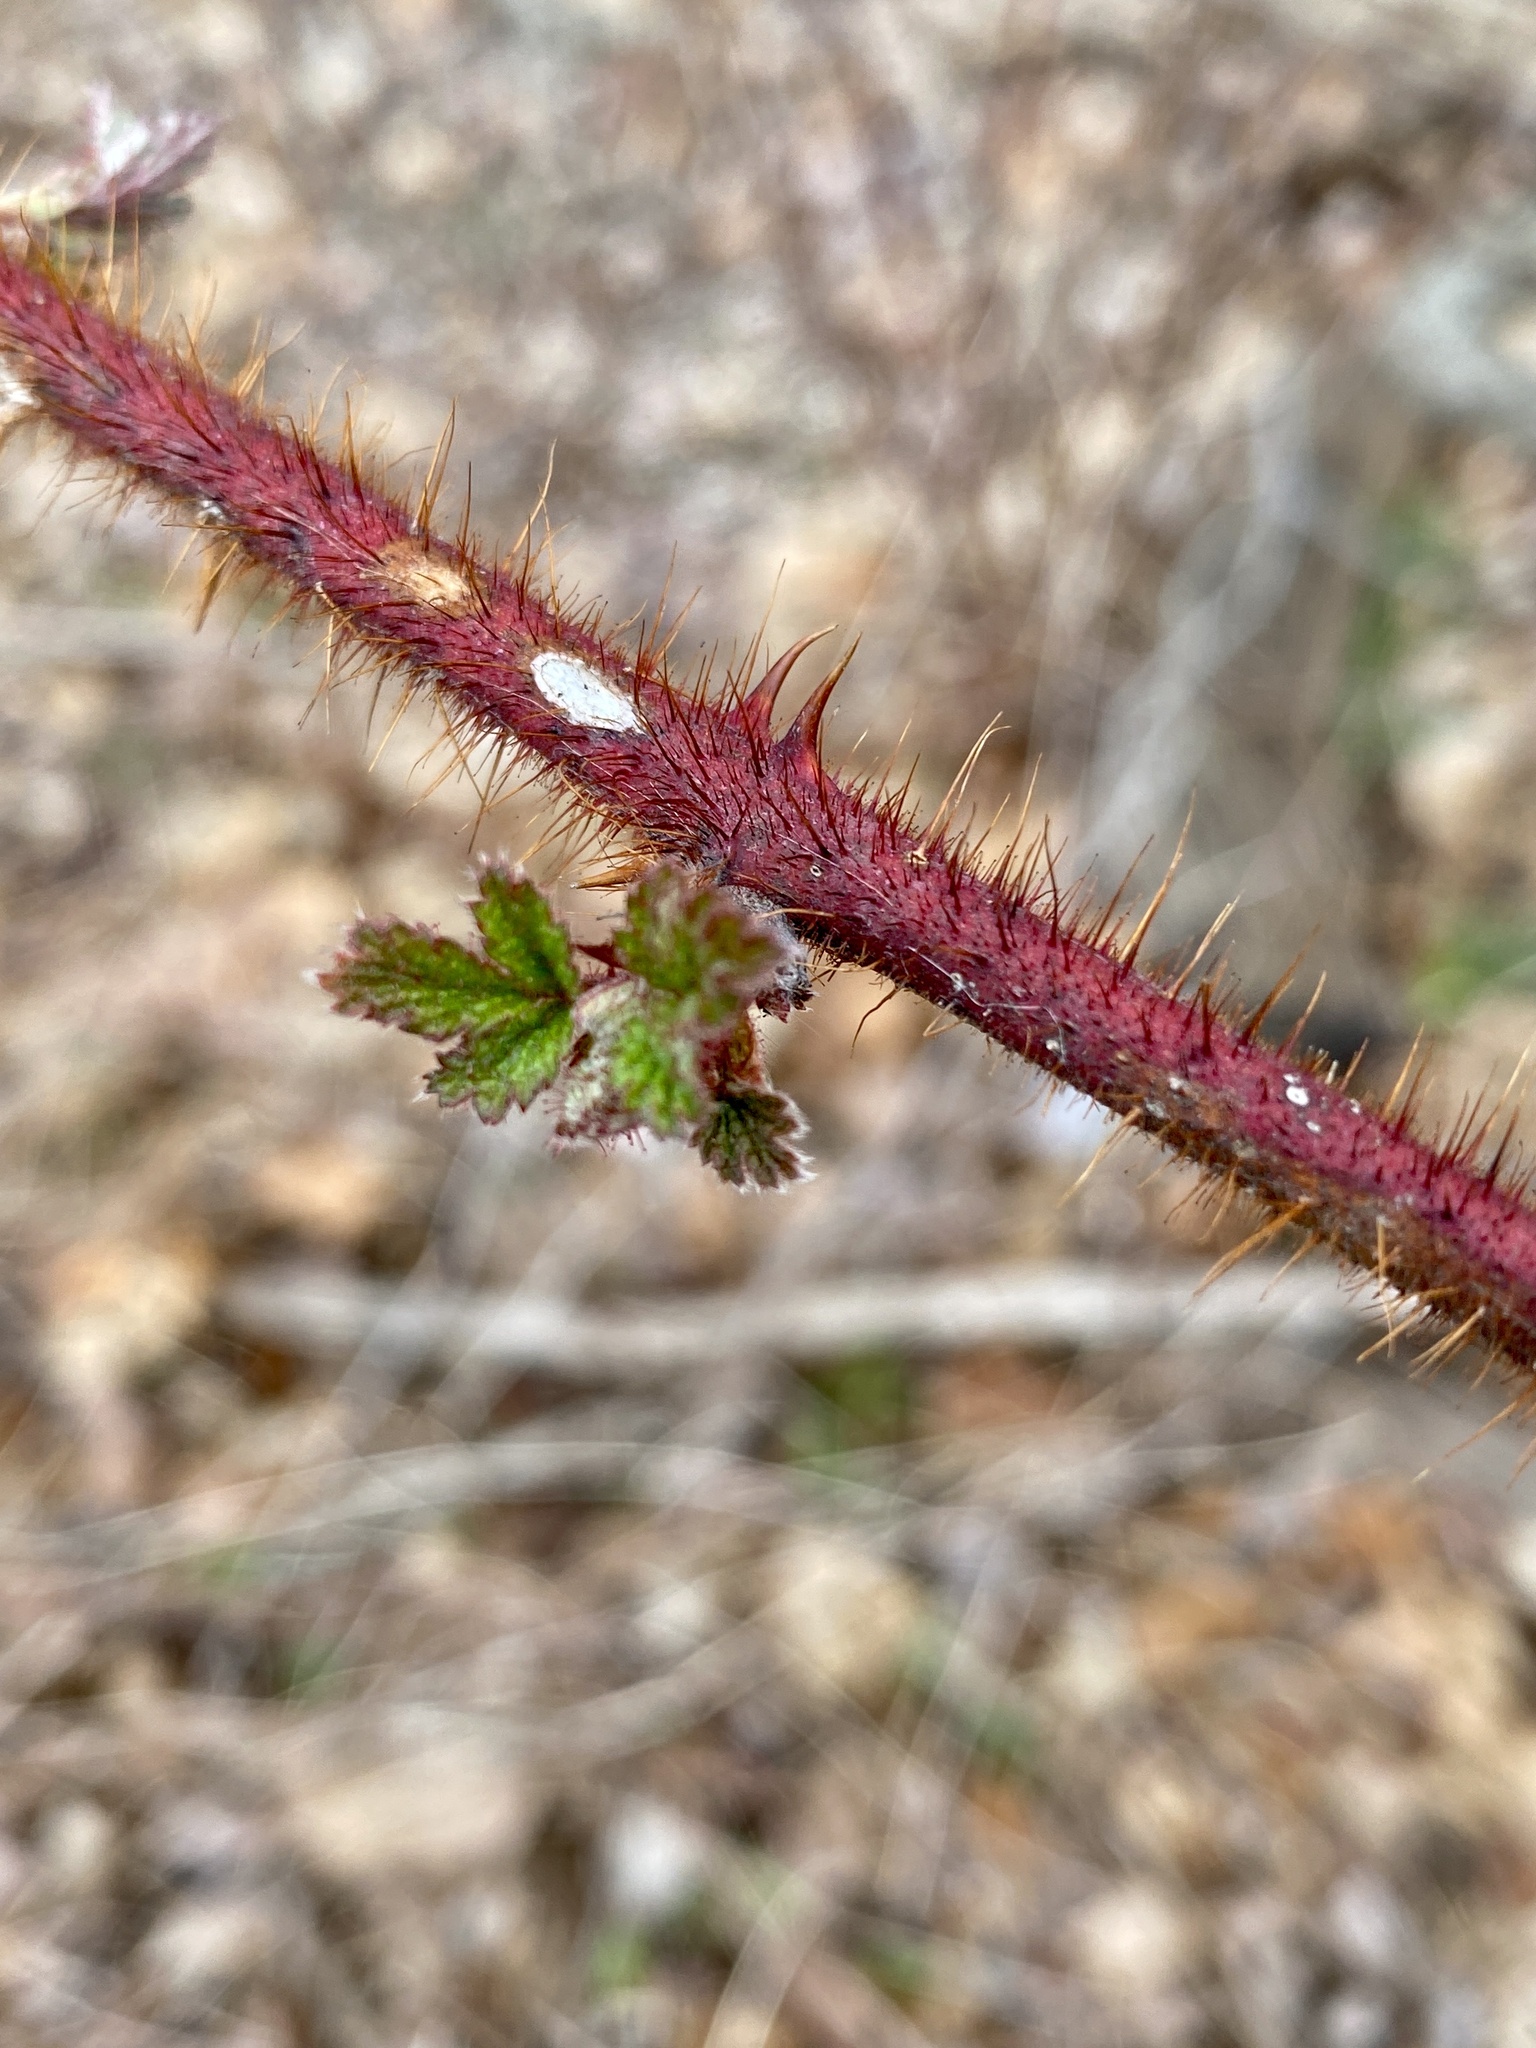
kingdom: Plantae
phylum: Tracheophyta
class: Magnoliopsida
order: Rosales
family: Rosaceae
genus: Rubus
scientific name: Rubus phoenicolasius
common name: Japanese wineberry
